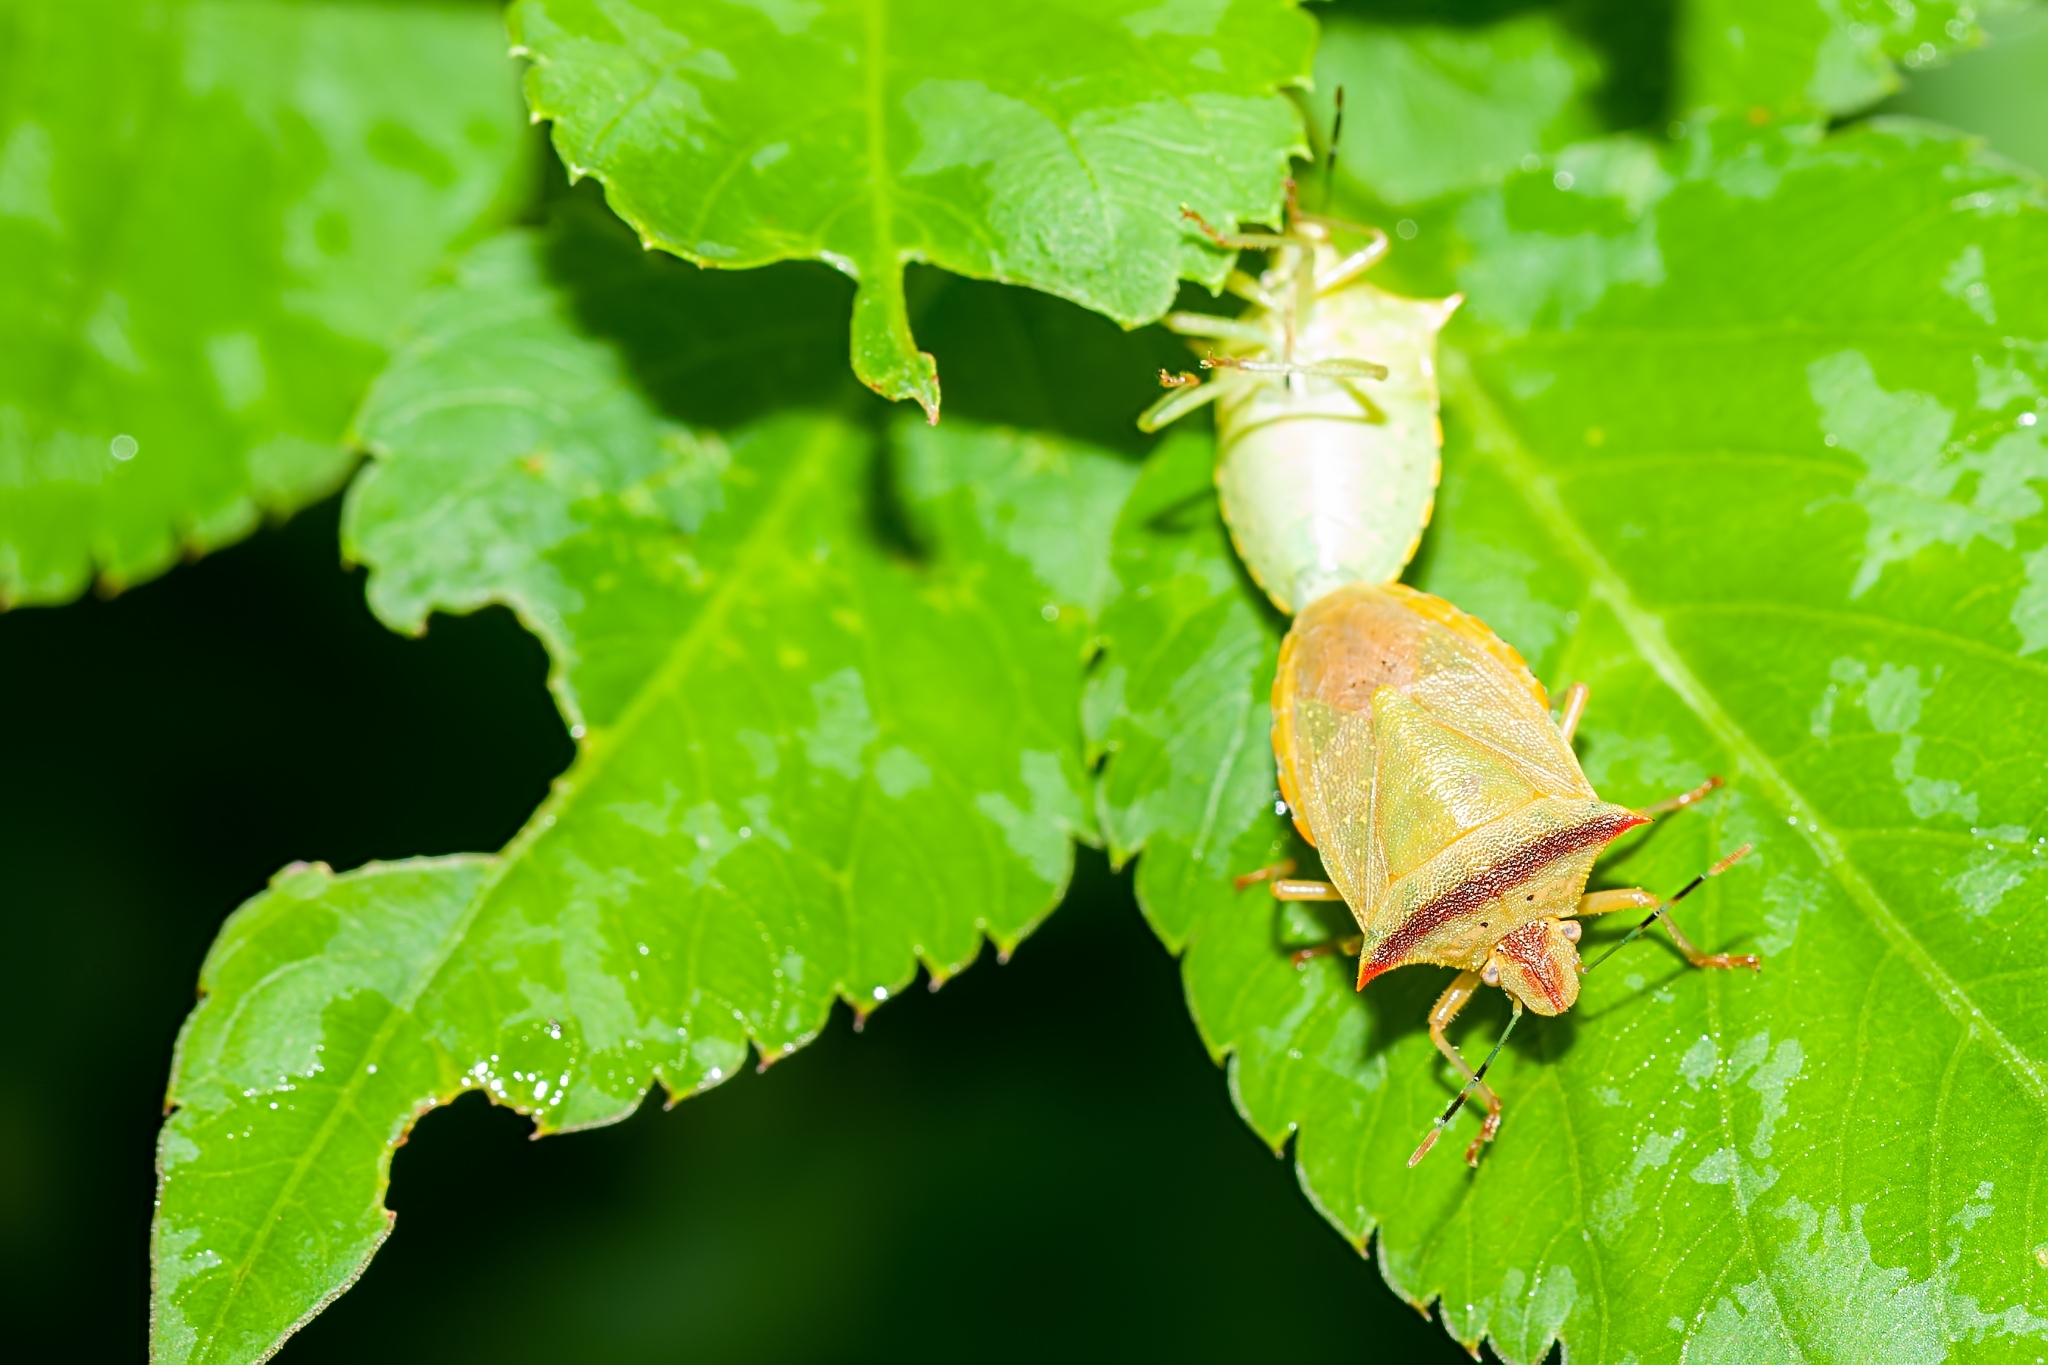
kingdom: Animalia
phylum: Arthropoda
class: Insecta
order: Hemiptera
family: Pentatomidae
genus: Thyanta
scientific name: Thyanta perditor
